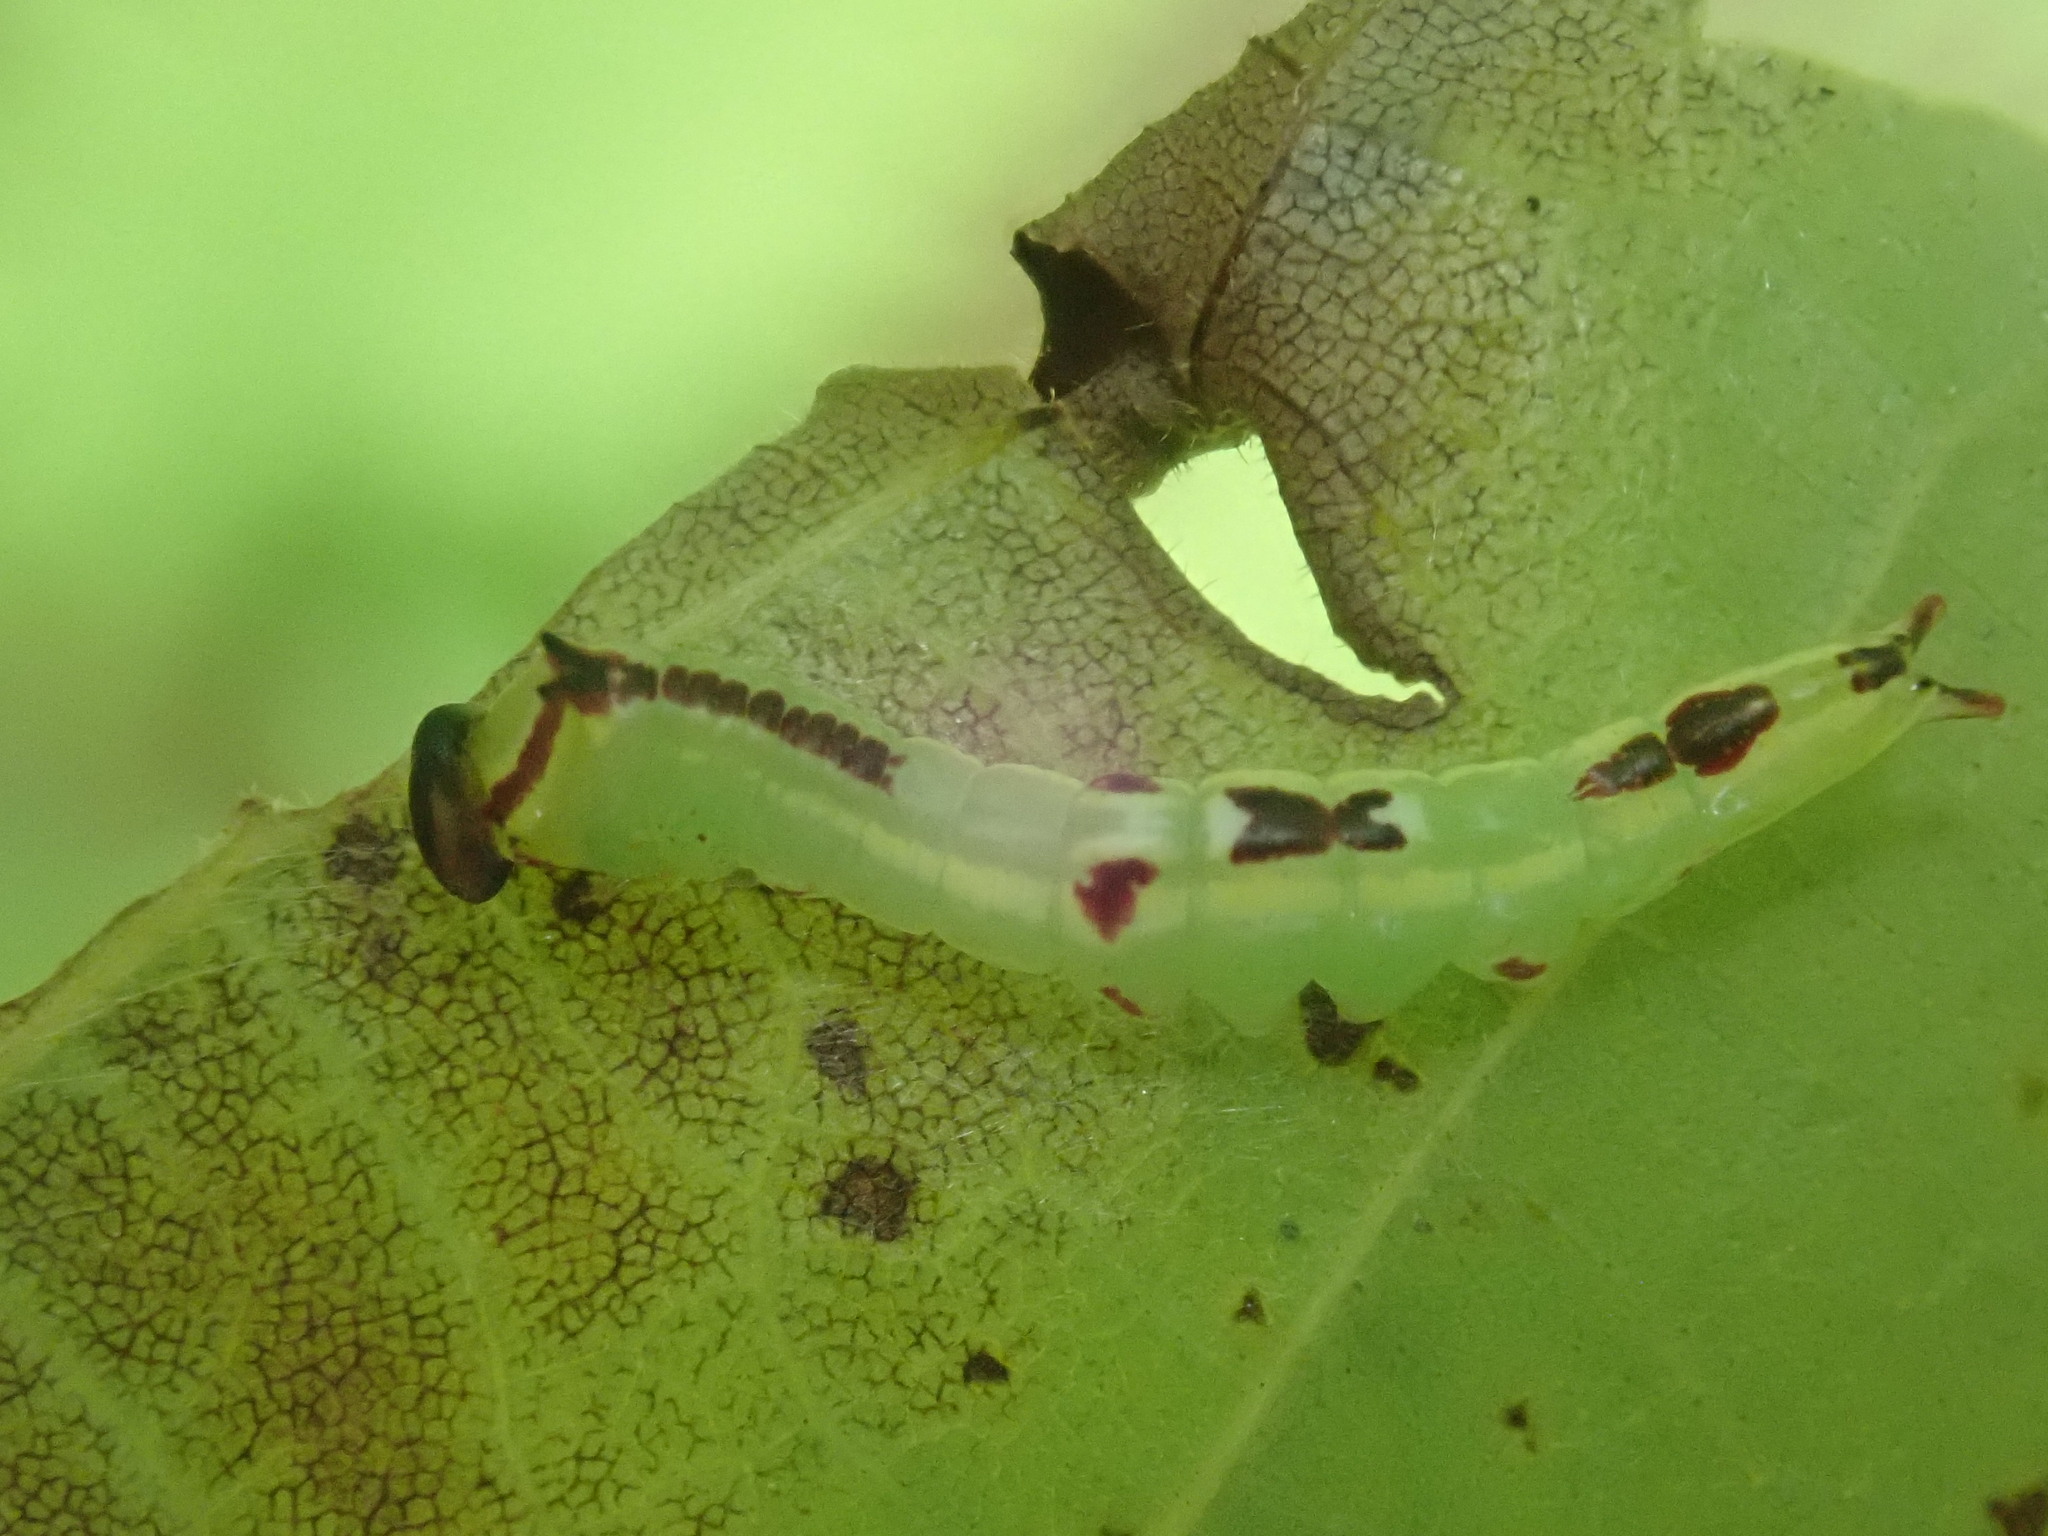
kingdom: Animalia
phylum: Arthropoda
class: Insecta
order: Lepidoptera
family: Notodontidae
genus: Disphragis
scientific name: Disphragis Cecrita guttivitta
